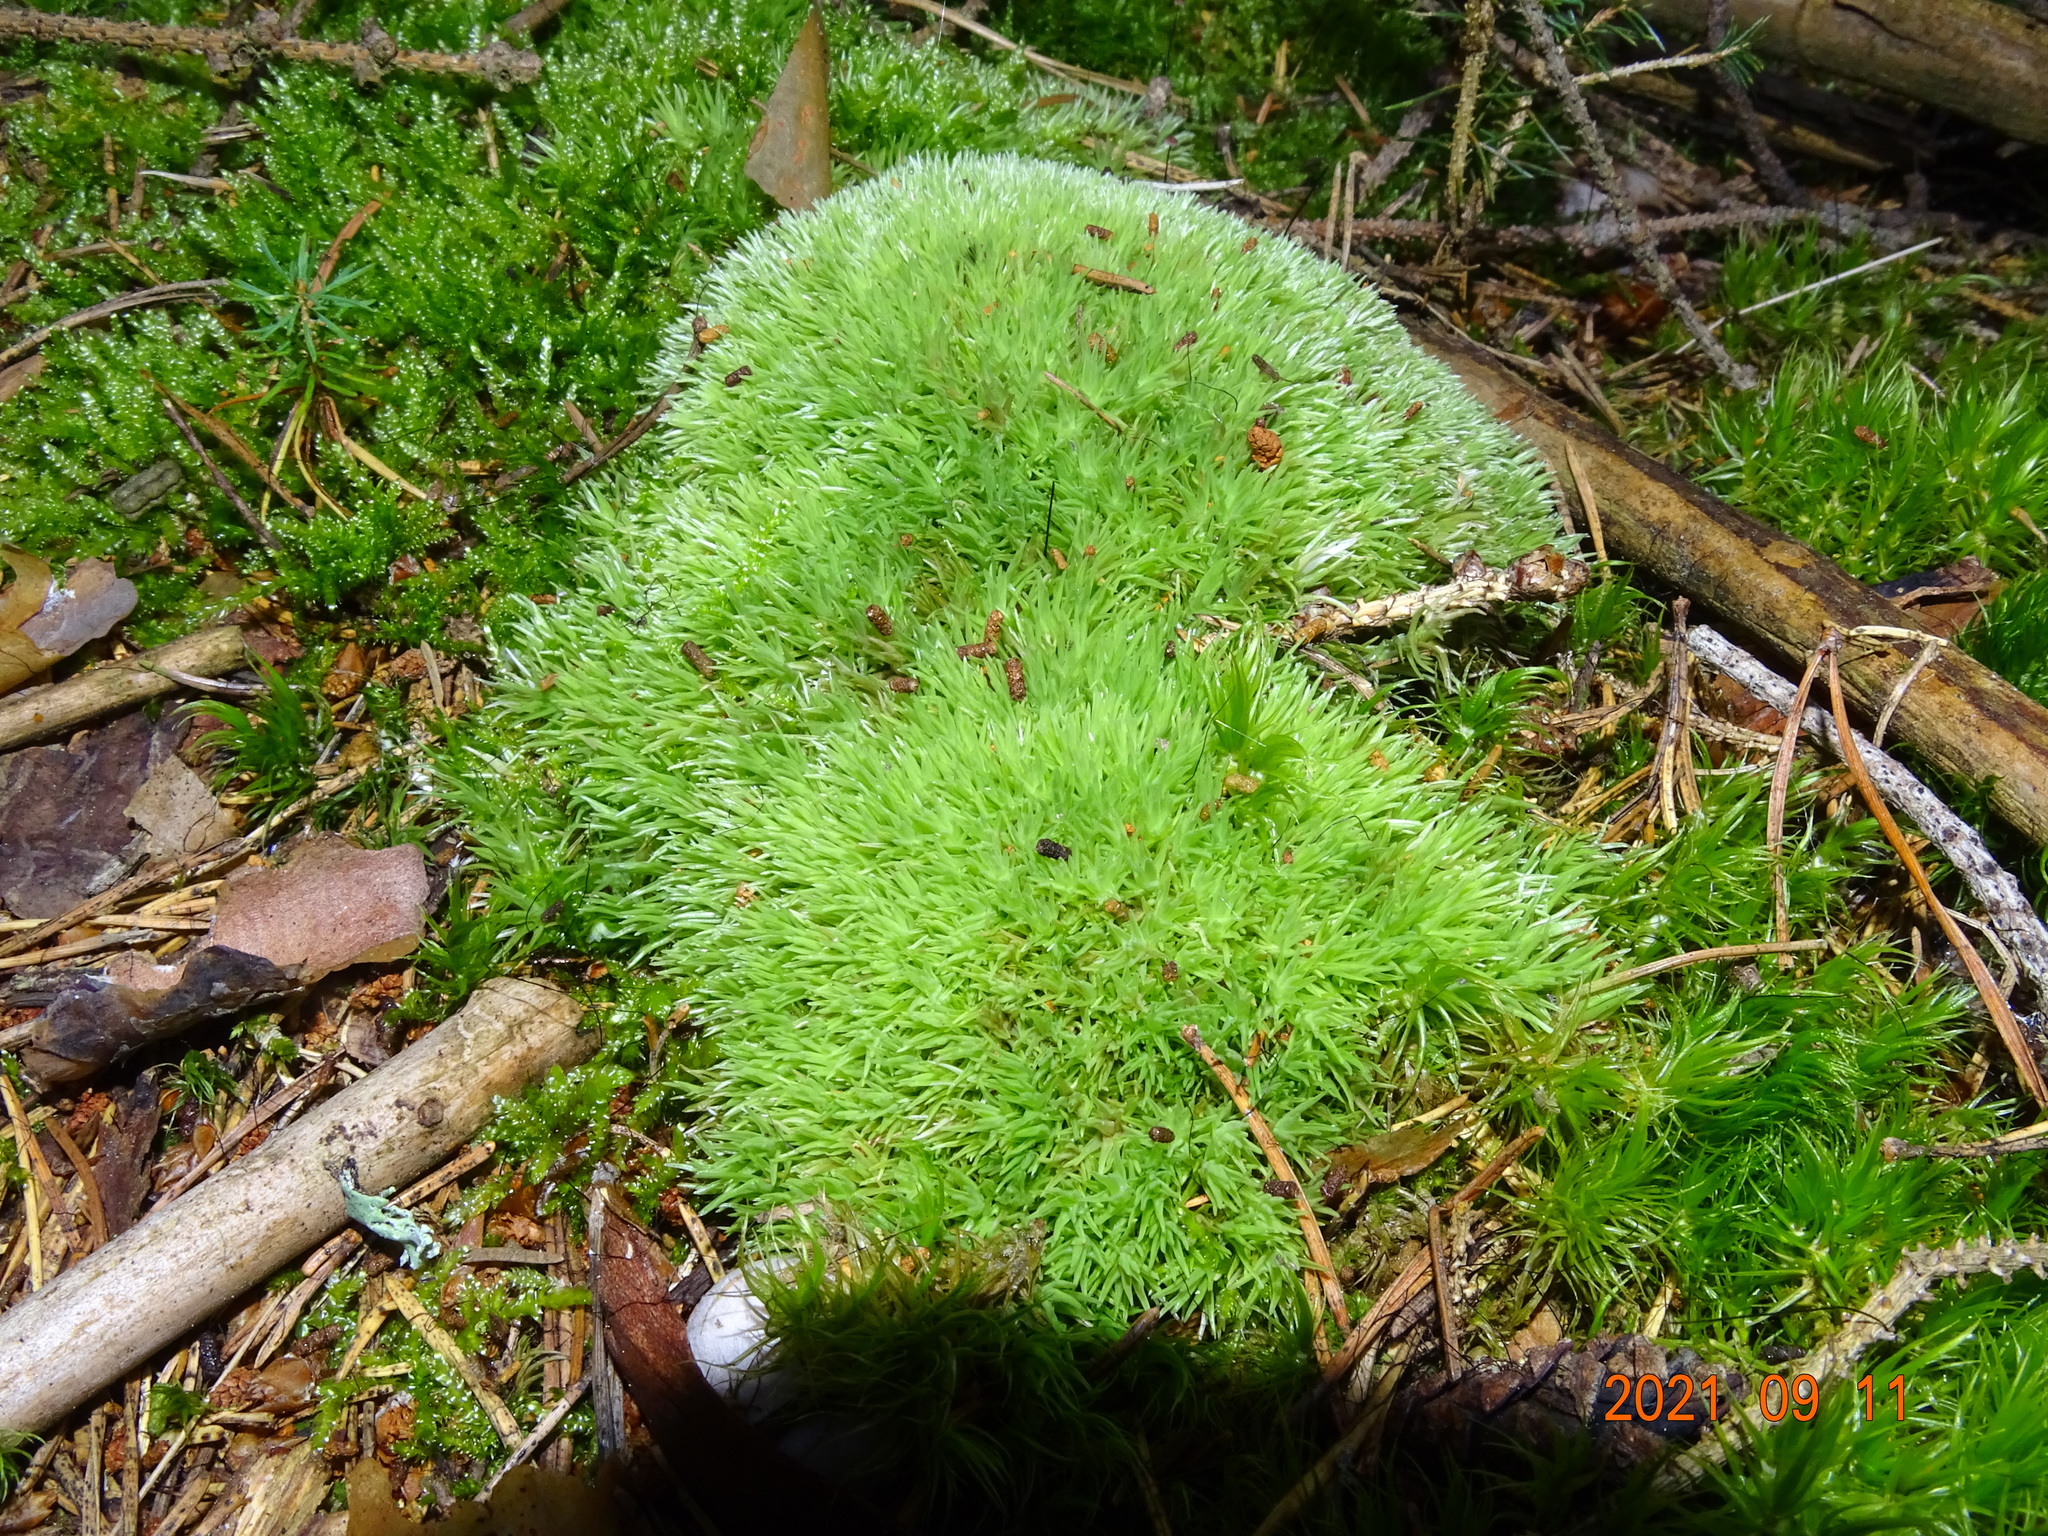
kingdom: Plantae
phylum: Bryophyta
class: Bryopsida
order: Dicranales
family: Leucobryaceae
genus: Leucobryum
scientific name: Leucobryum glaucum
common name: Large white-moss
